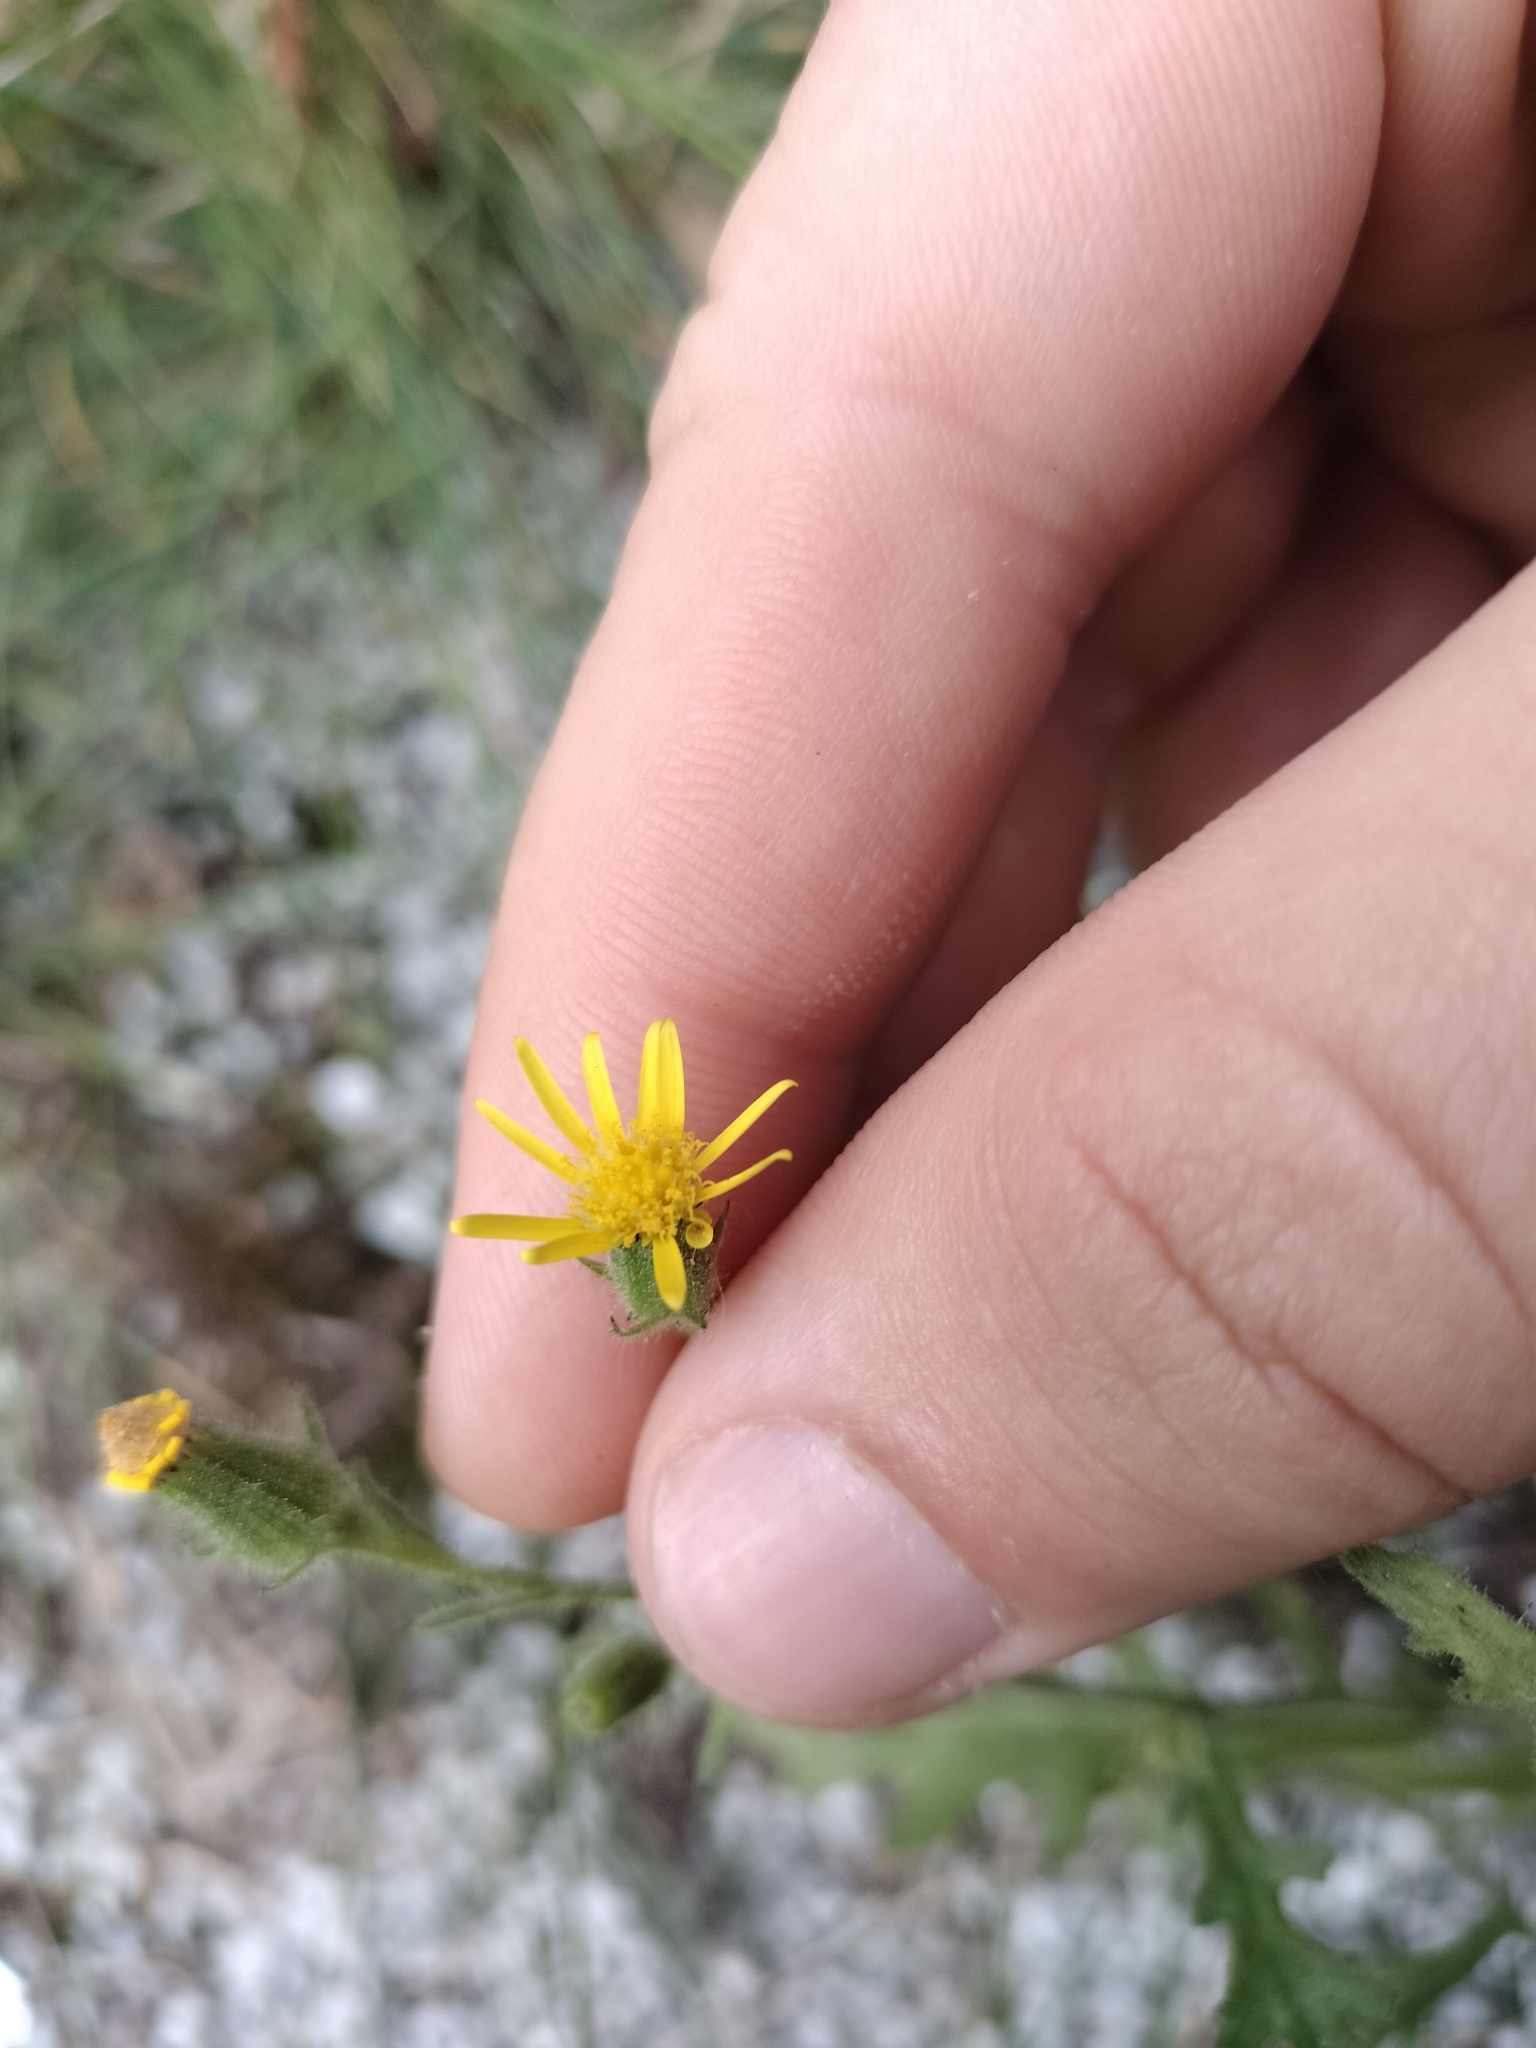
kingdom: Plantae
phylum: Tracheophyta
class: Magnoliopsida
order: Asterales
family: Asteraceae
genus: Senecio
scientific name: Senecio viscosus
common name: Sticky groundsel
